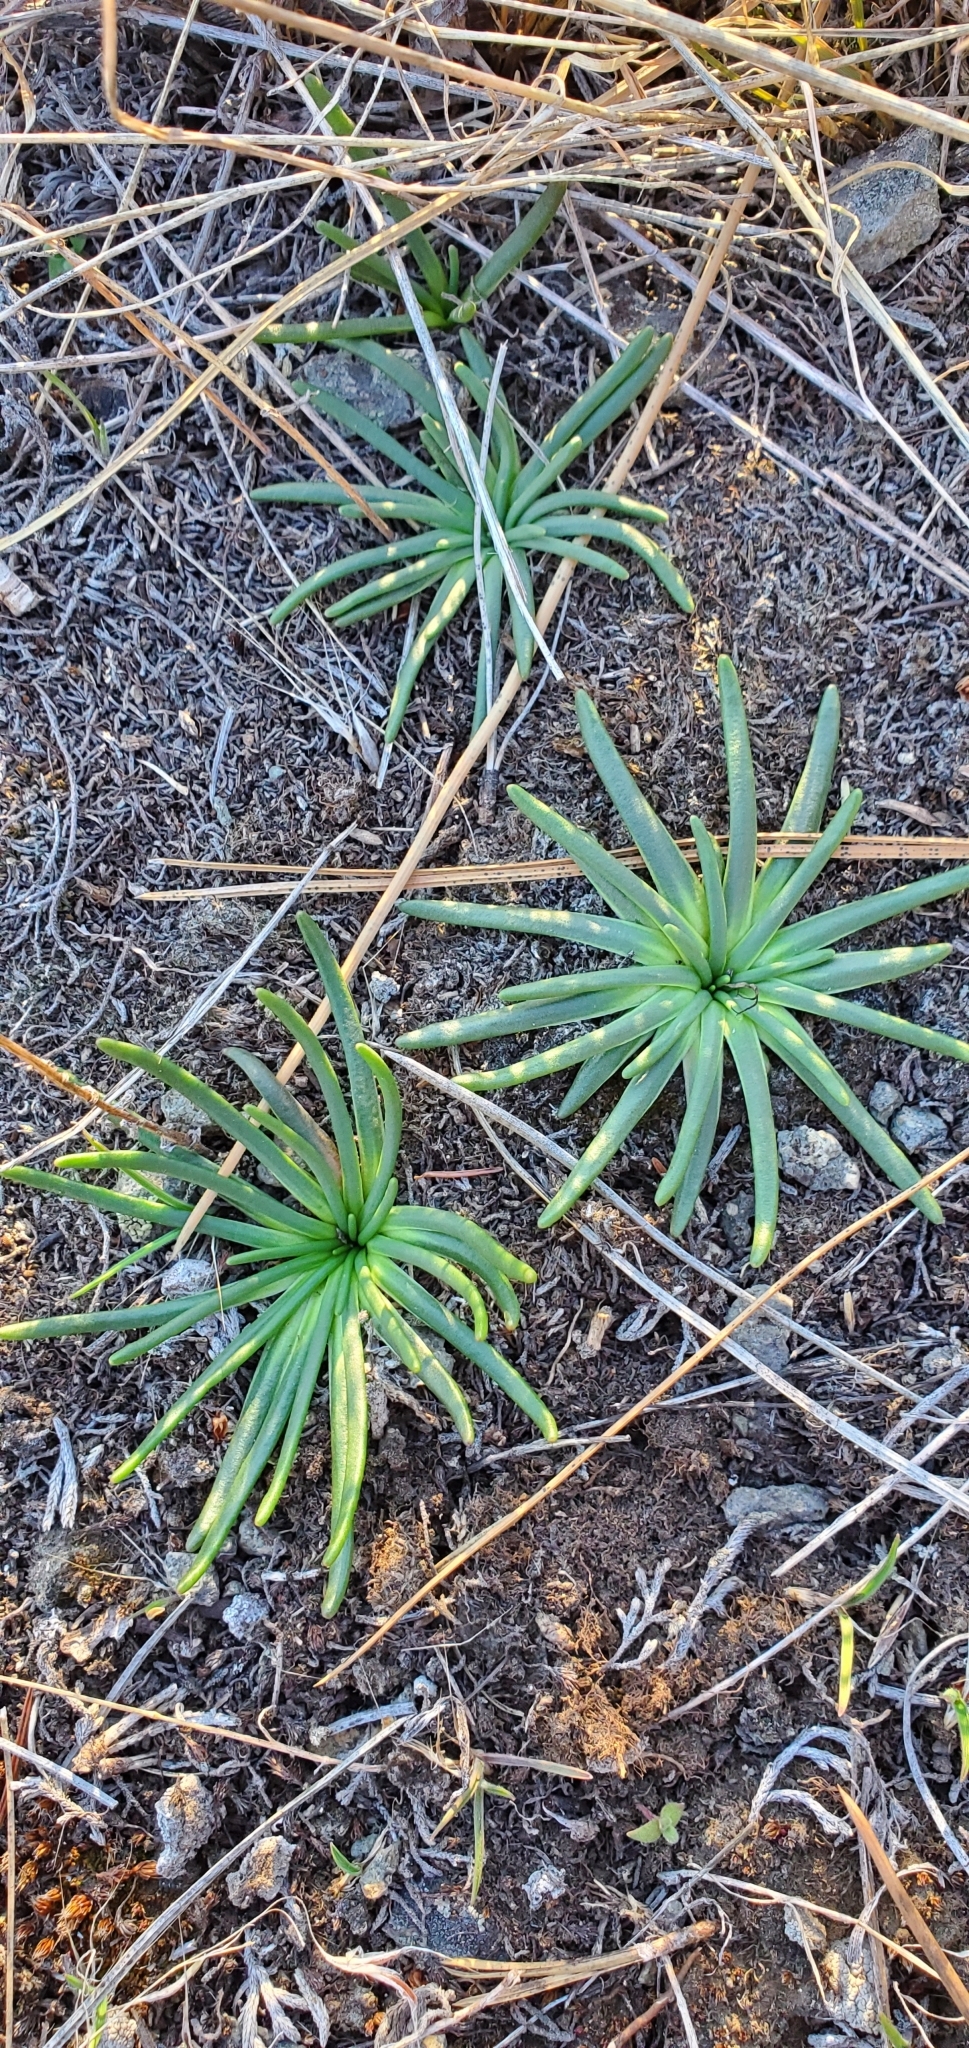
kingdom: Plantae
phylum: Tracheophyta
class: Magnoliopsida
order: Caryophyllales
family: Montiaceae
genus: Lewisia
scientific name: Lewisia rediviva
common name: Bitter-root
